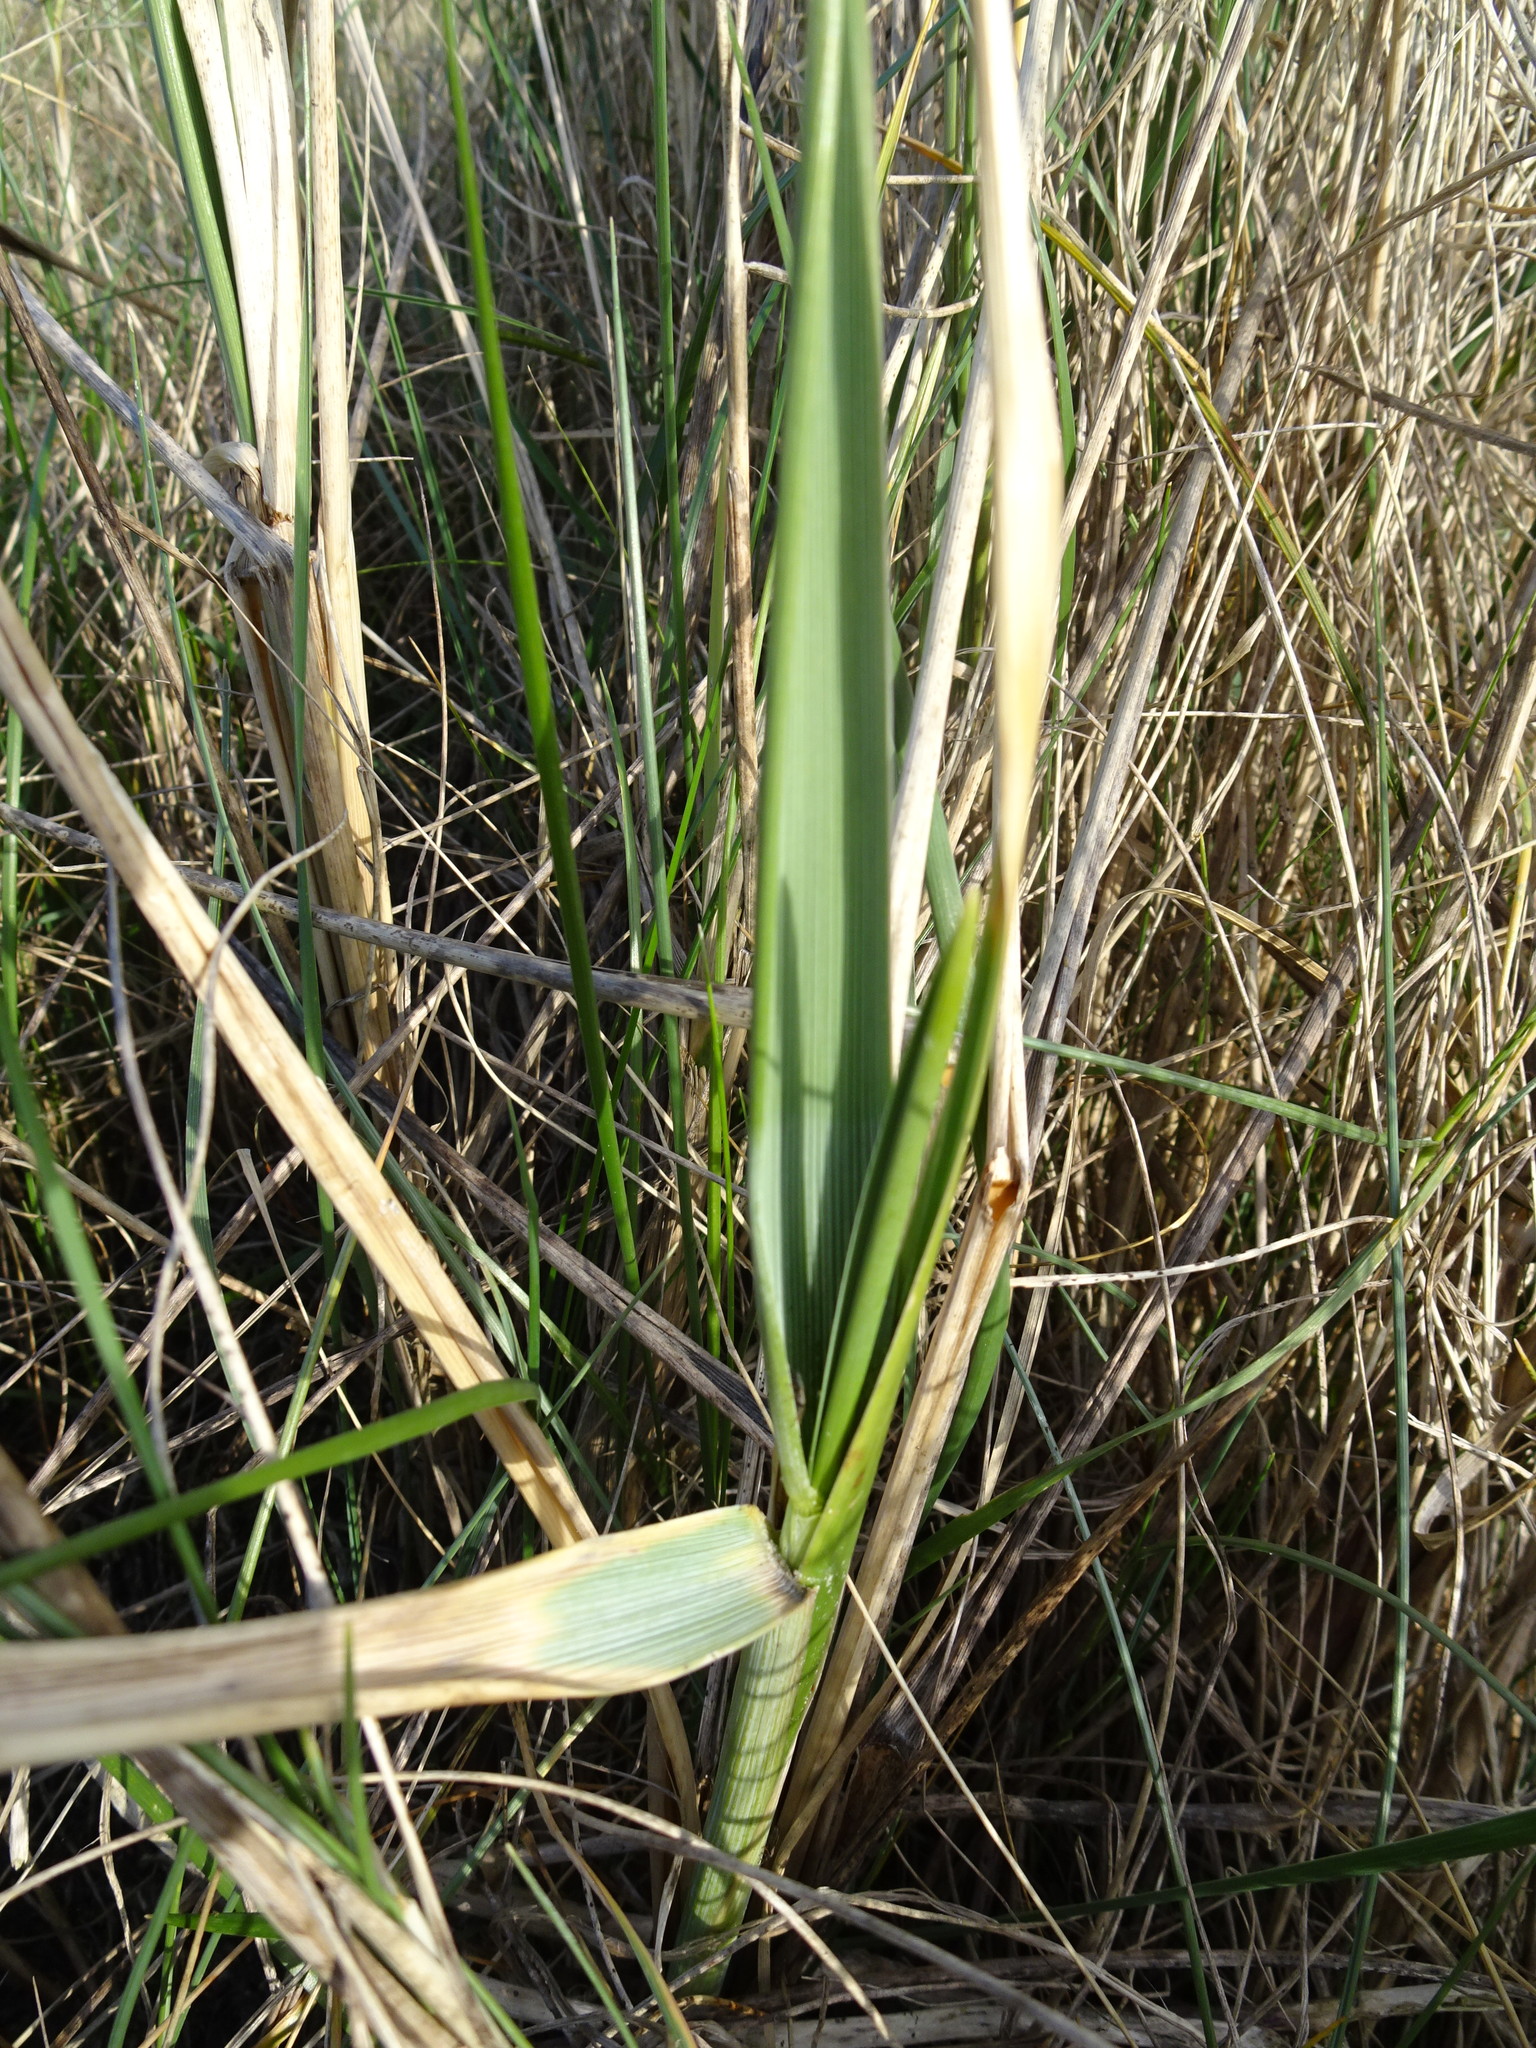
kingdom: Plantae
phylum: Tracheophyta
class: Liliopsida
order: Poales
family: Poaceae
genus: Leymus
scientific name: Leymus arenarius
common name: Lyme-grass
